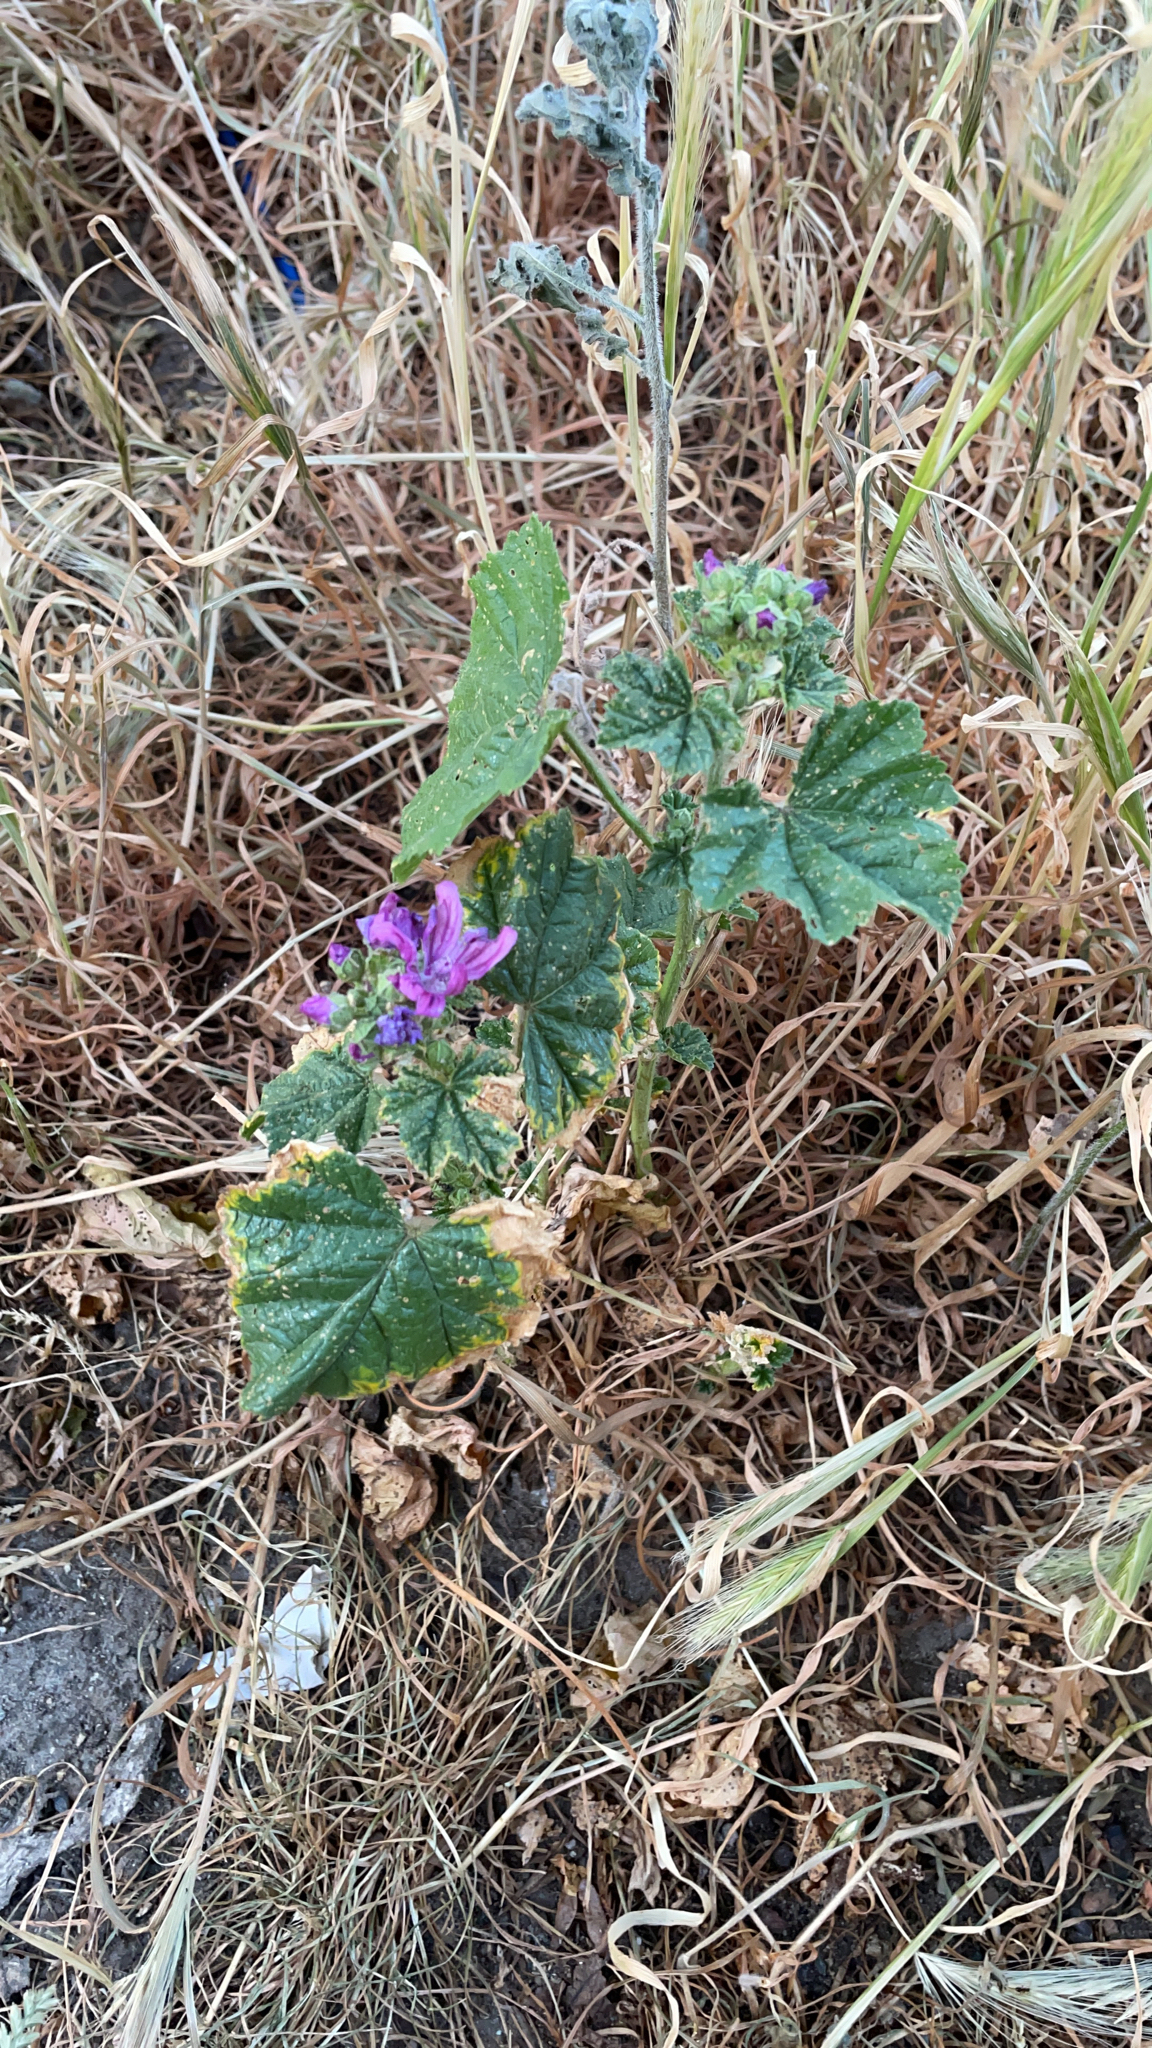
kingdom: Plantae
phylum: Tracheophyta
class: Magnoliopsida
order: Malvales
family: Malvaceae
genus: Malva
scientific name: Malva sylvestris
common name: Common mallow
